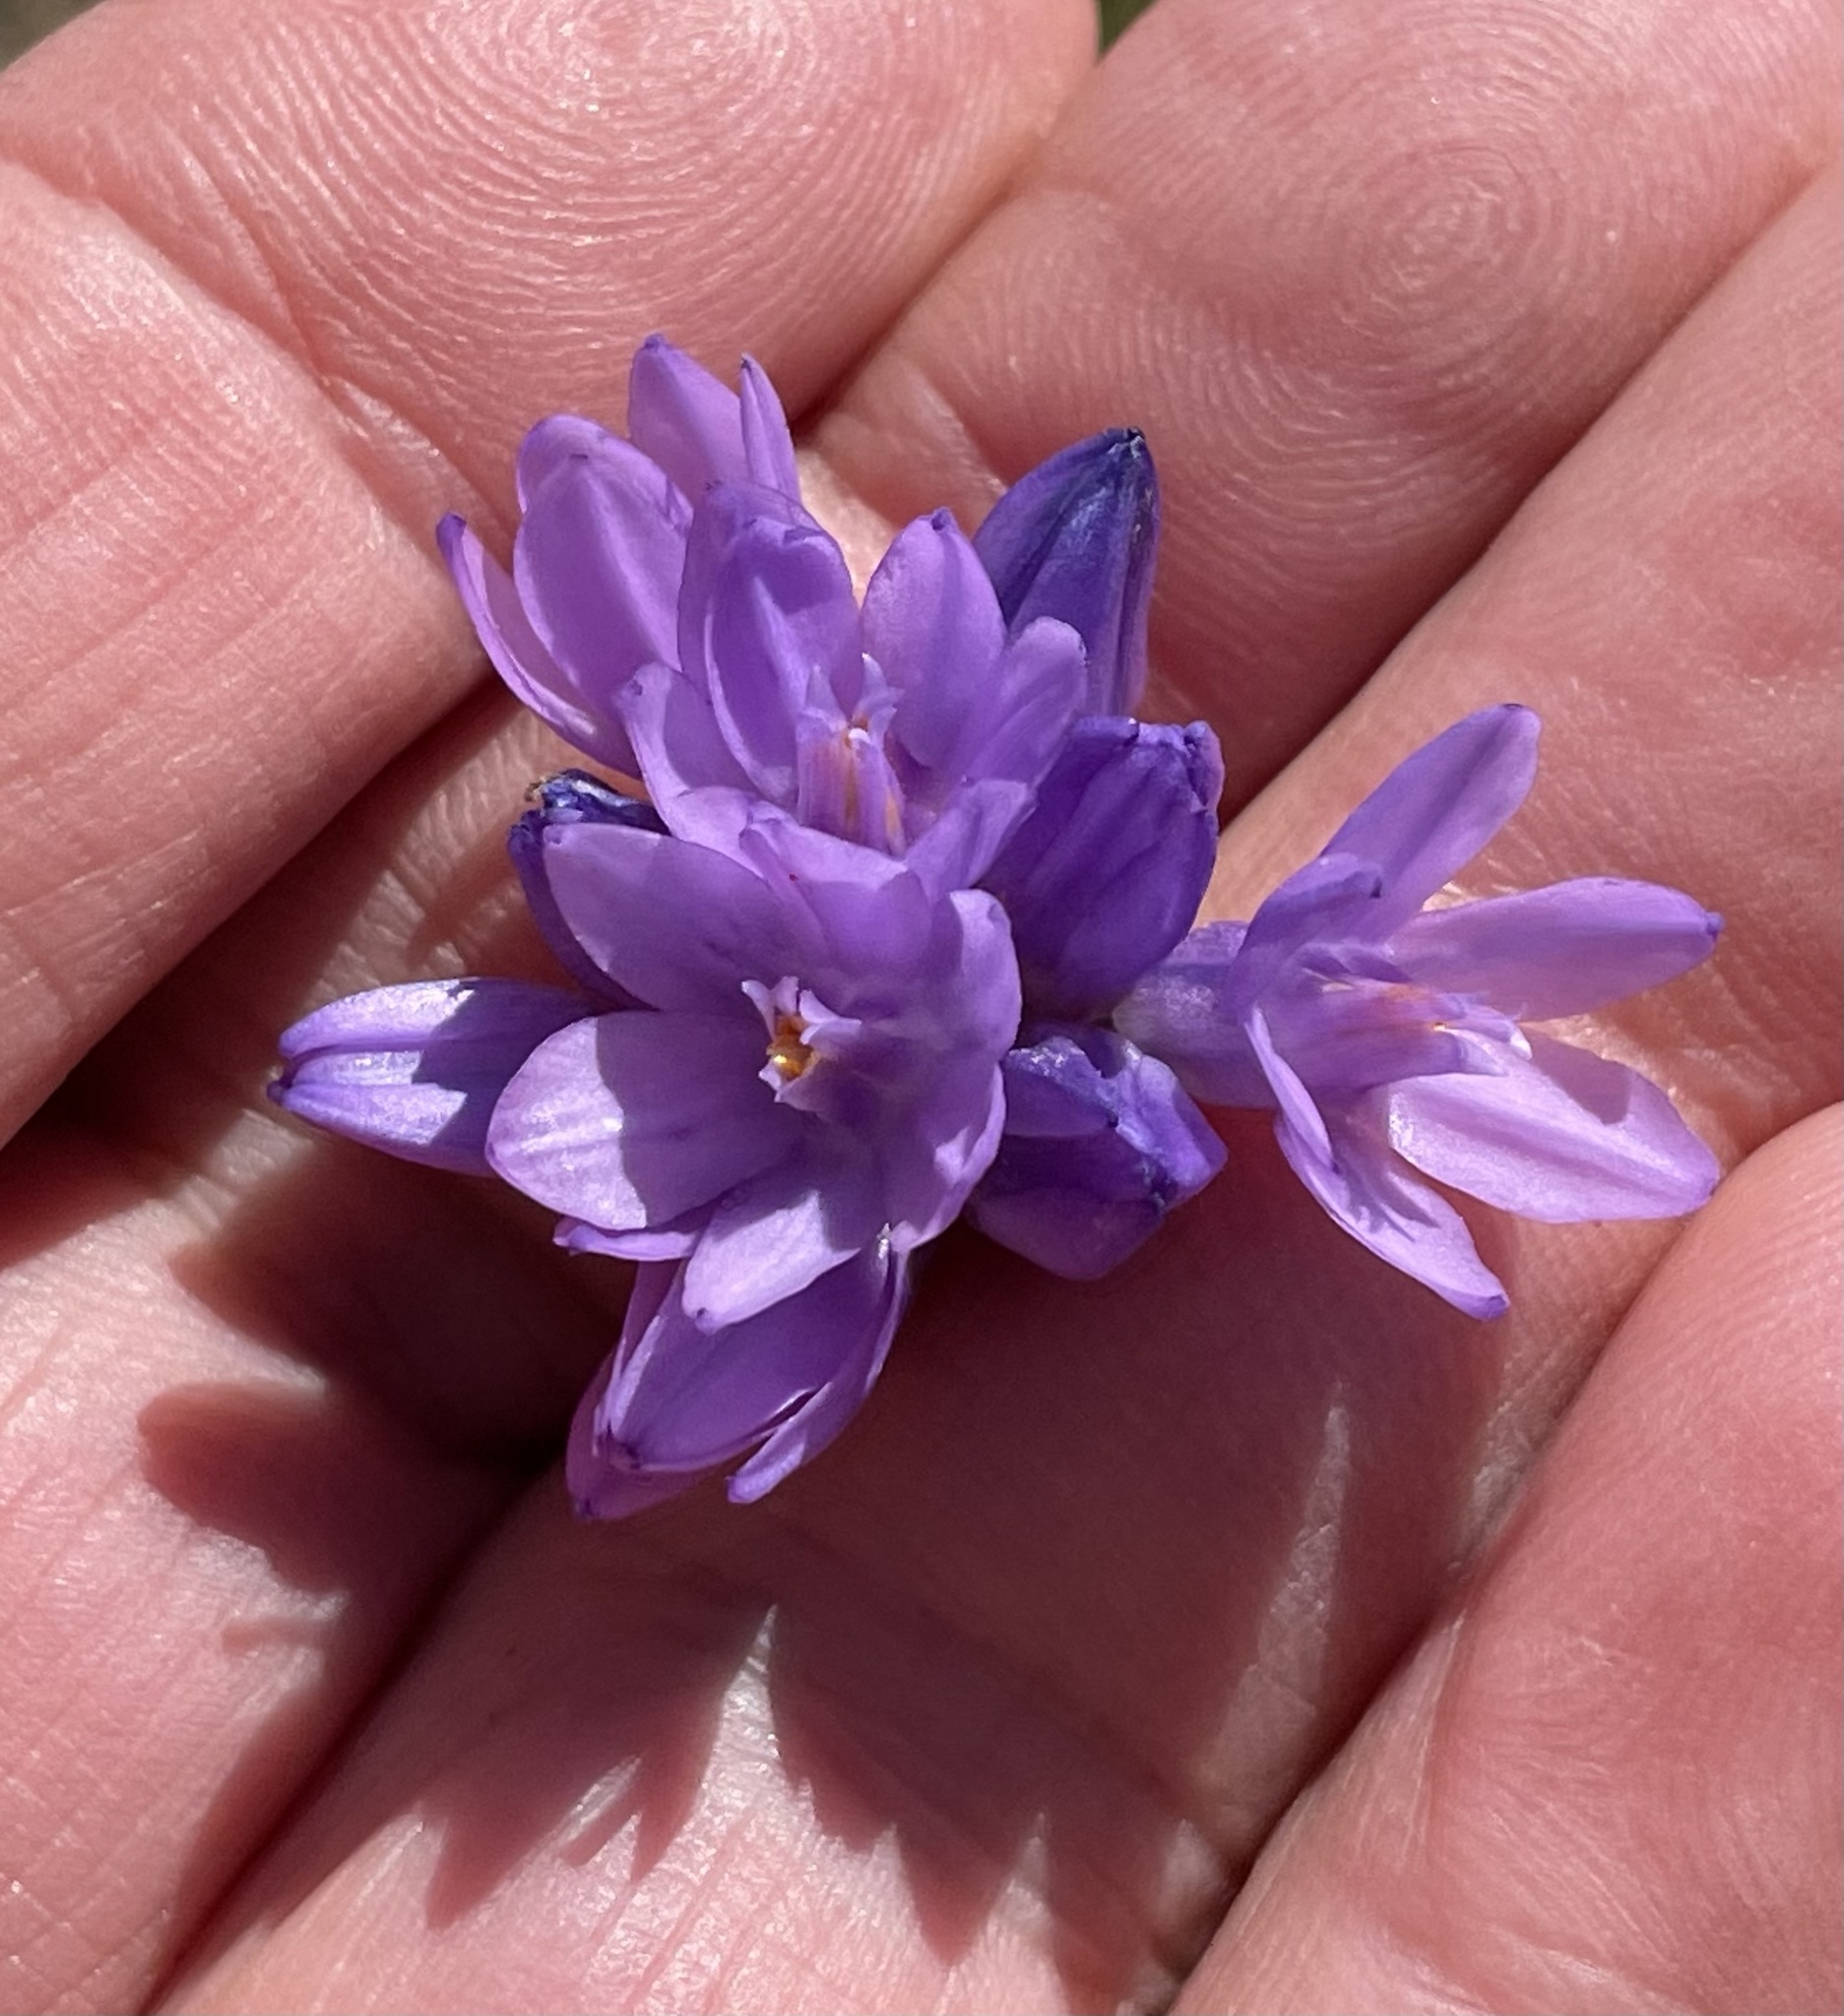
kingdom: Plantae
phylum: Tracheophyta
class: Liliopsida
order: Asparagales
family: Asparagaceae
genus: Dipterostemon
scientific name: Dipterostemon capitatus
